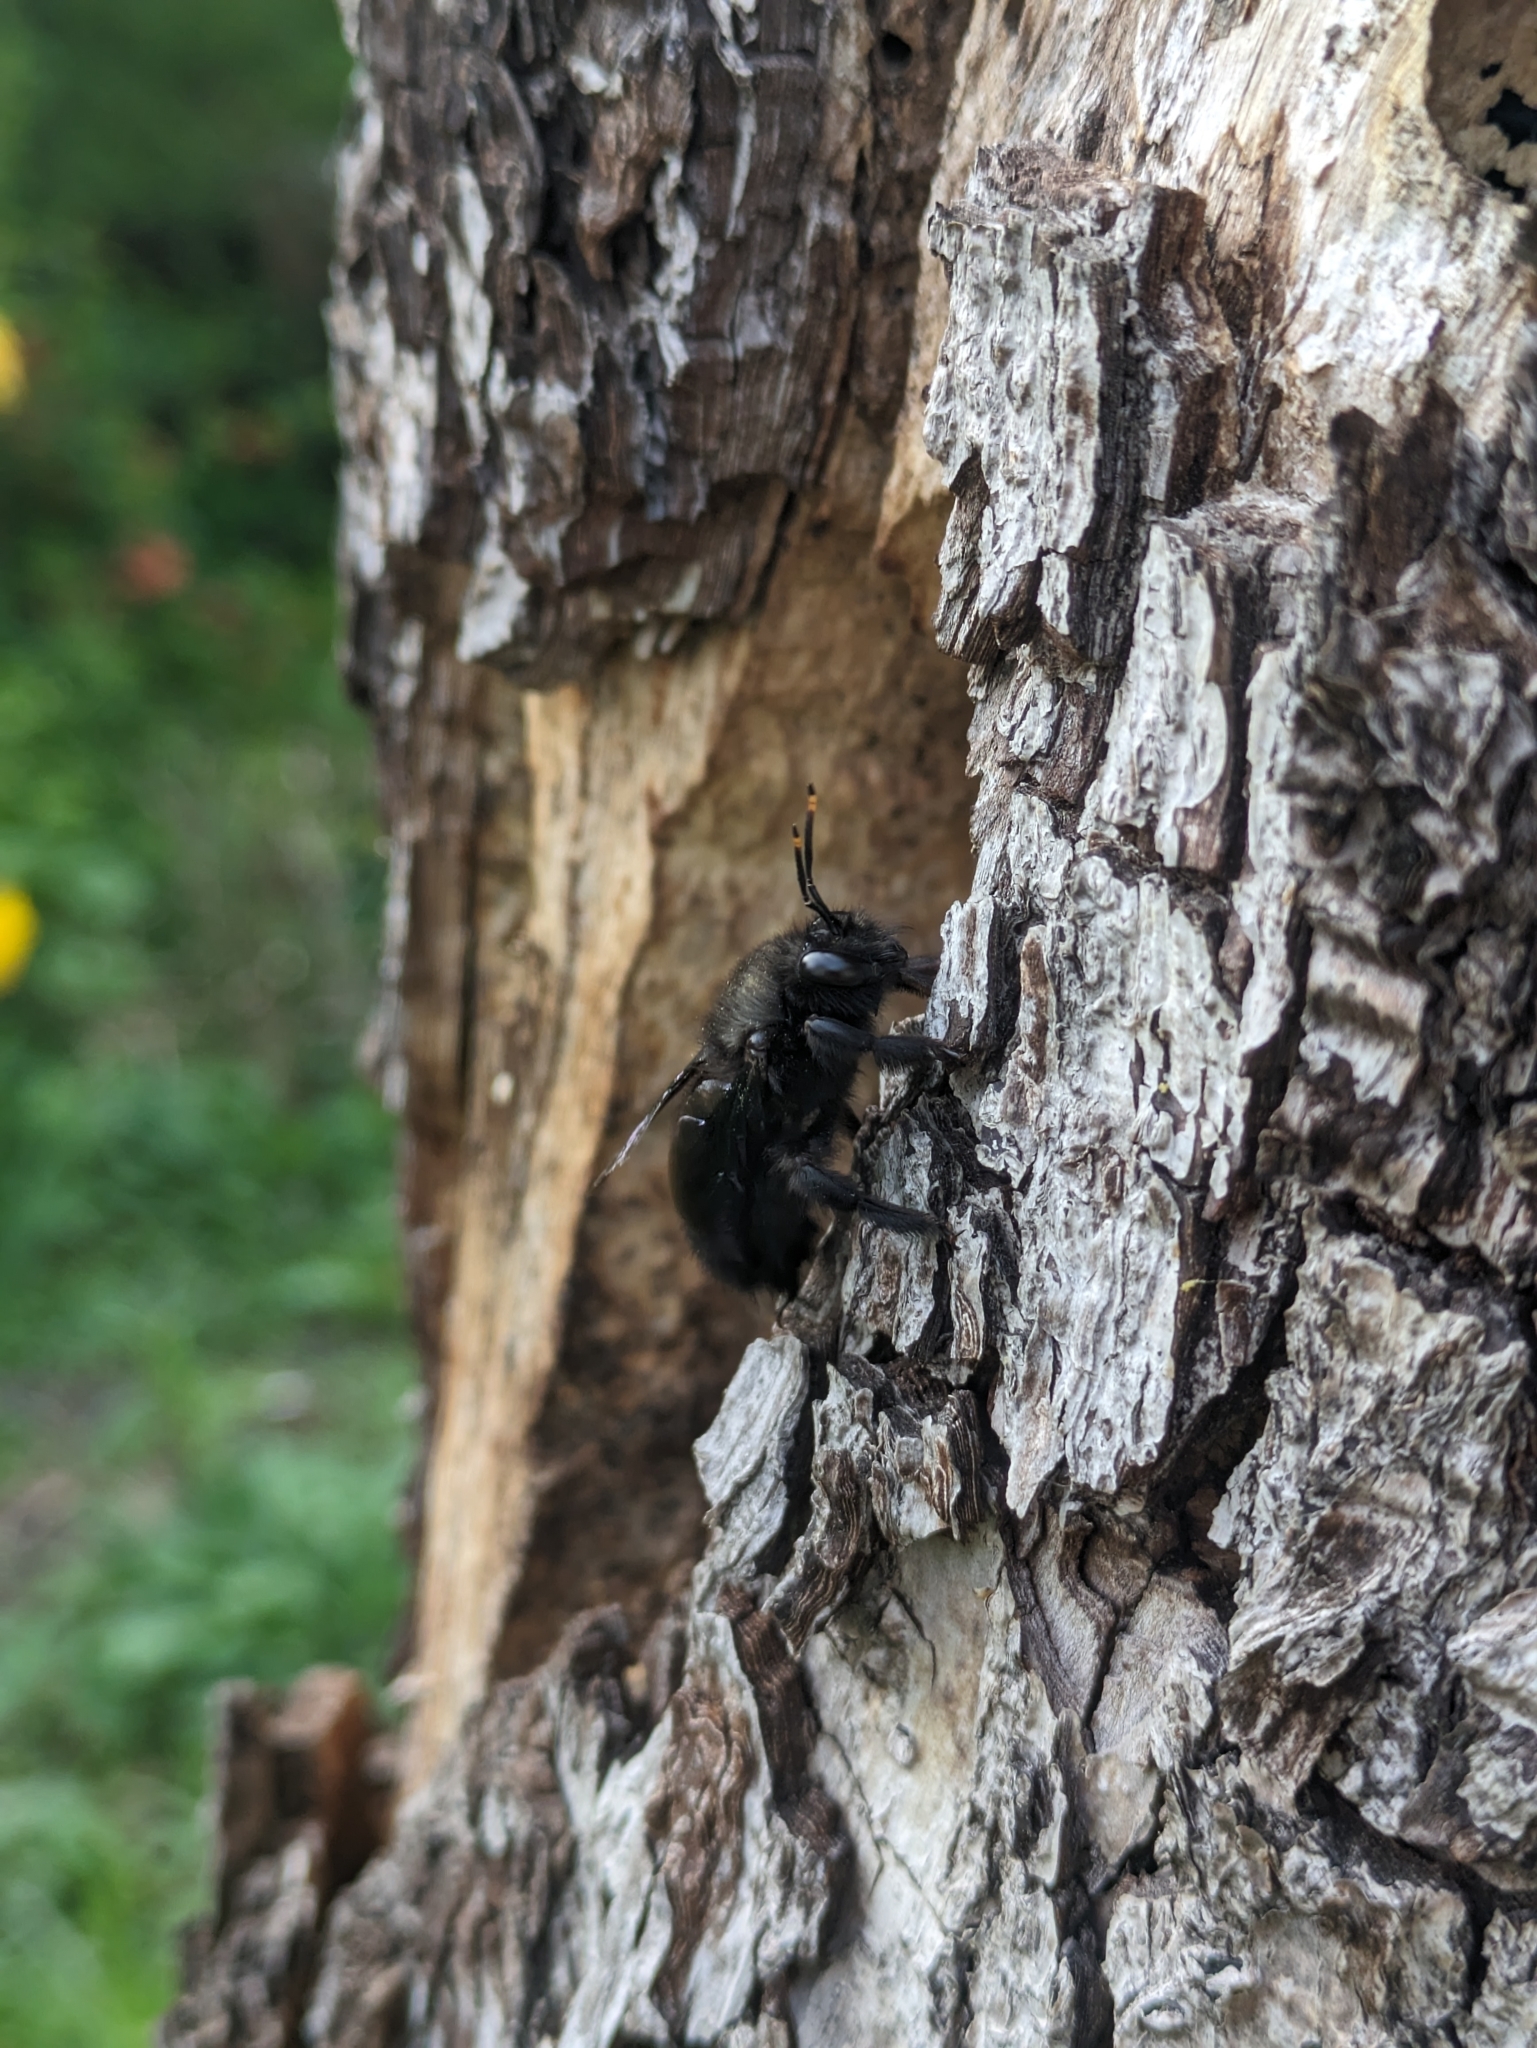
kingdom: Animalia
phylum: Arthropoda
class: Insecta
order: Hymenoptera
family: Apidae
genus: Xylocopa
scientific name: Xylocopa violacea
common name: Violet carpenter bee
